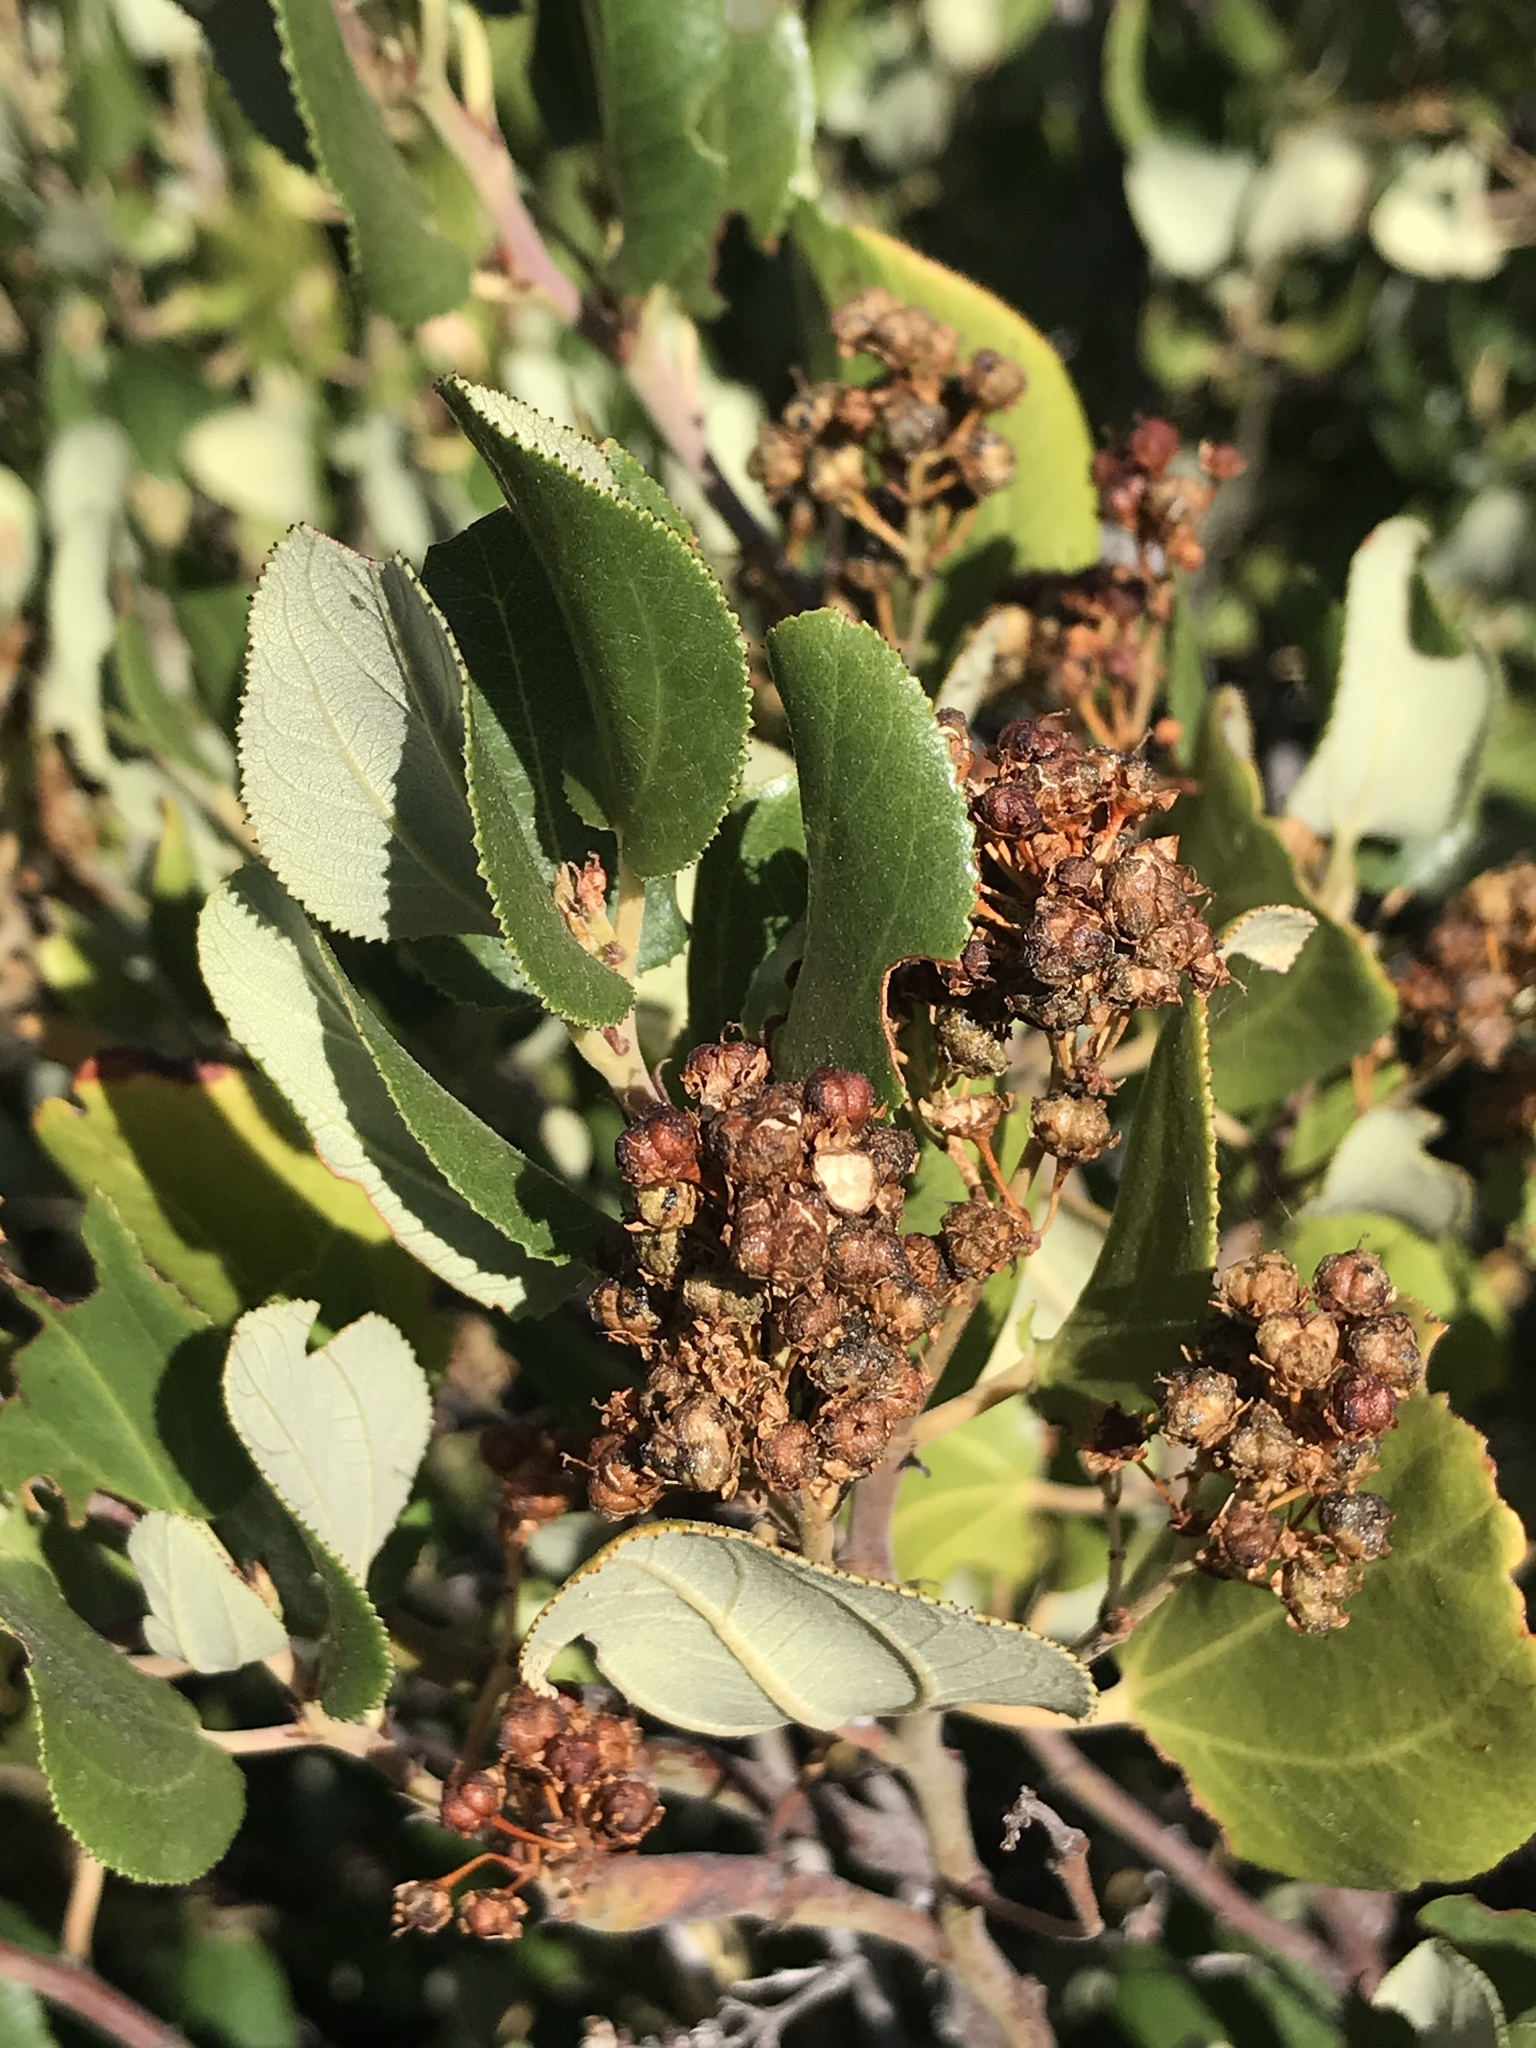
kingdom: Plantae
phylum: Tracheophyta
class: Magnoliopsida
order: Rosales
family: Rhamnaceae
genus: Ceanothus
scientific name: Ceanothus velutinus
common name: Snowbrush
